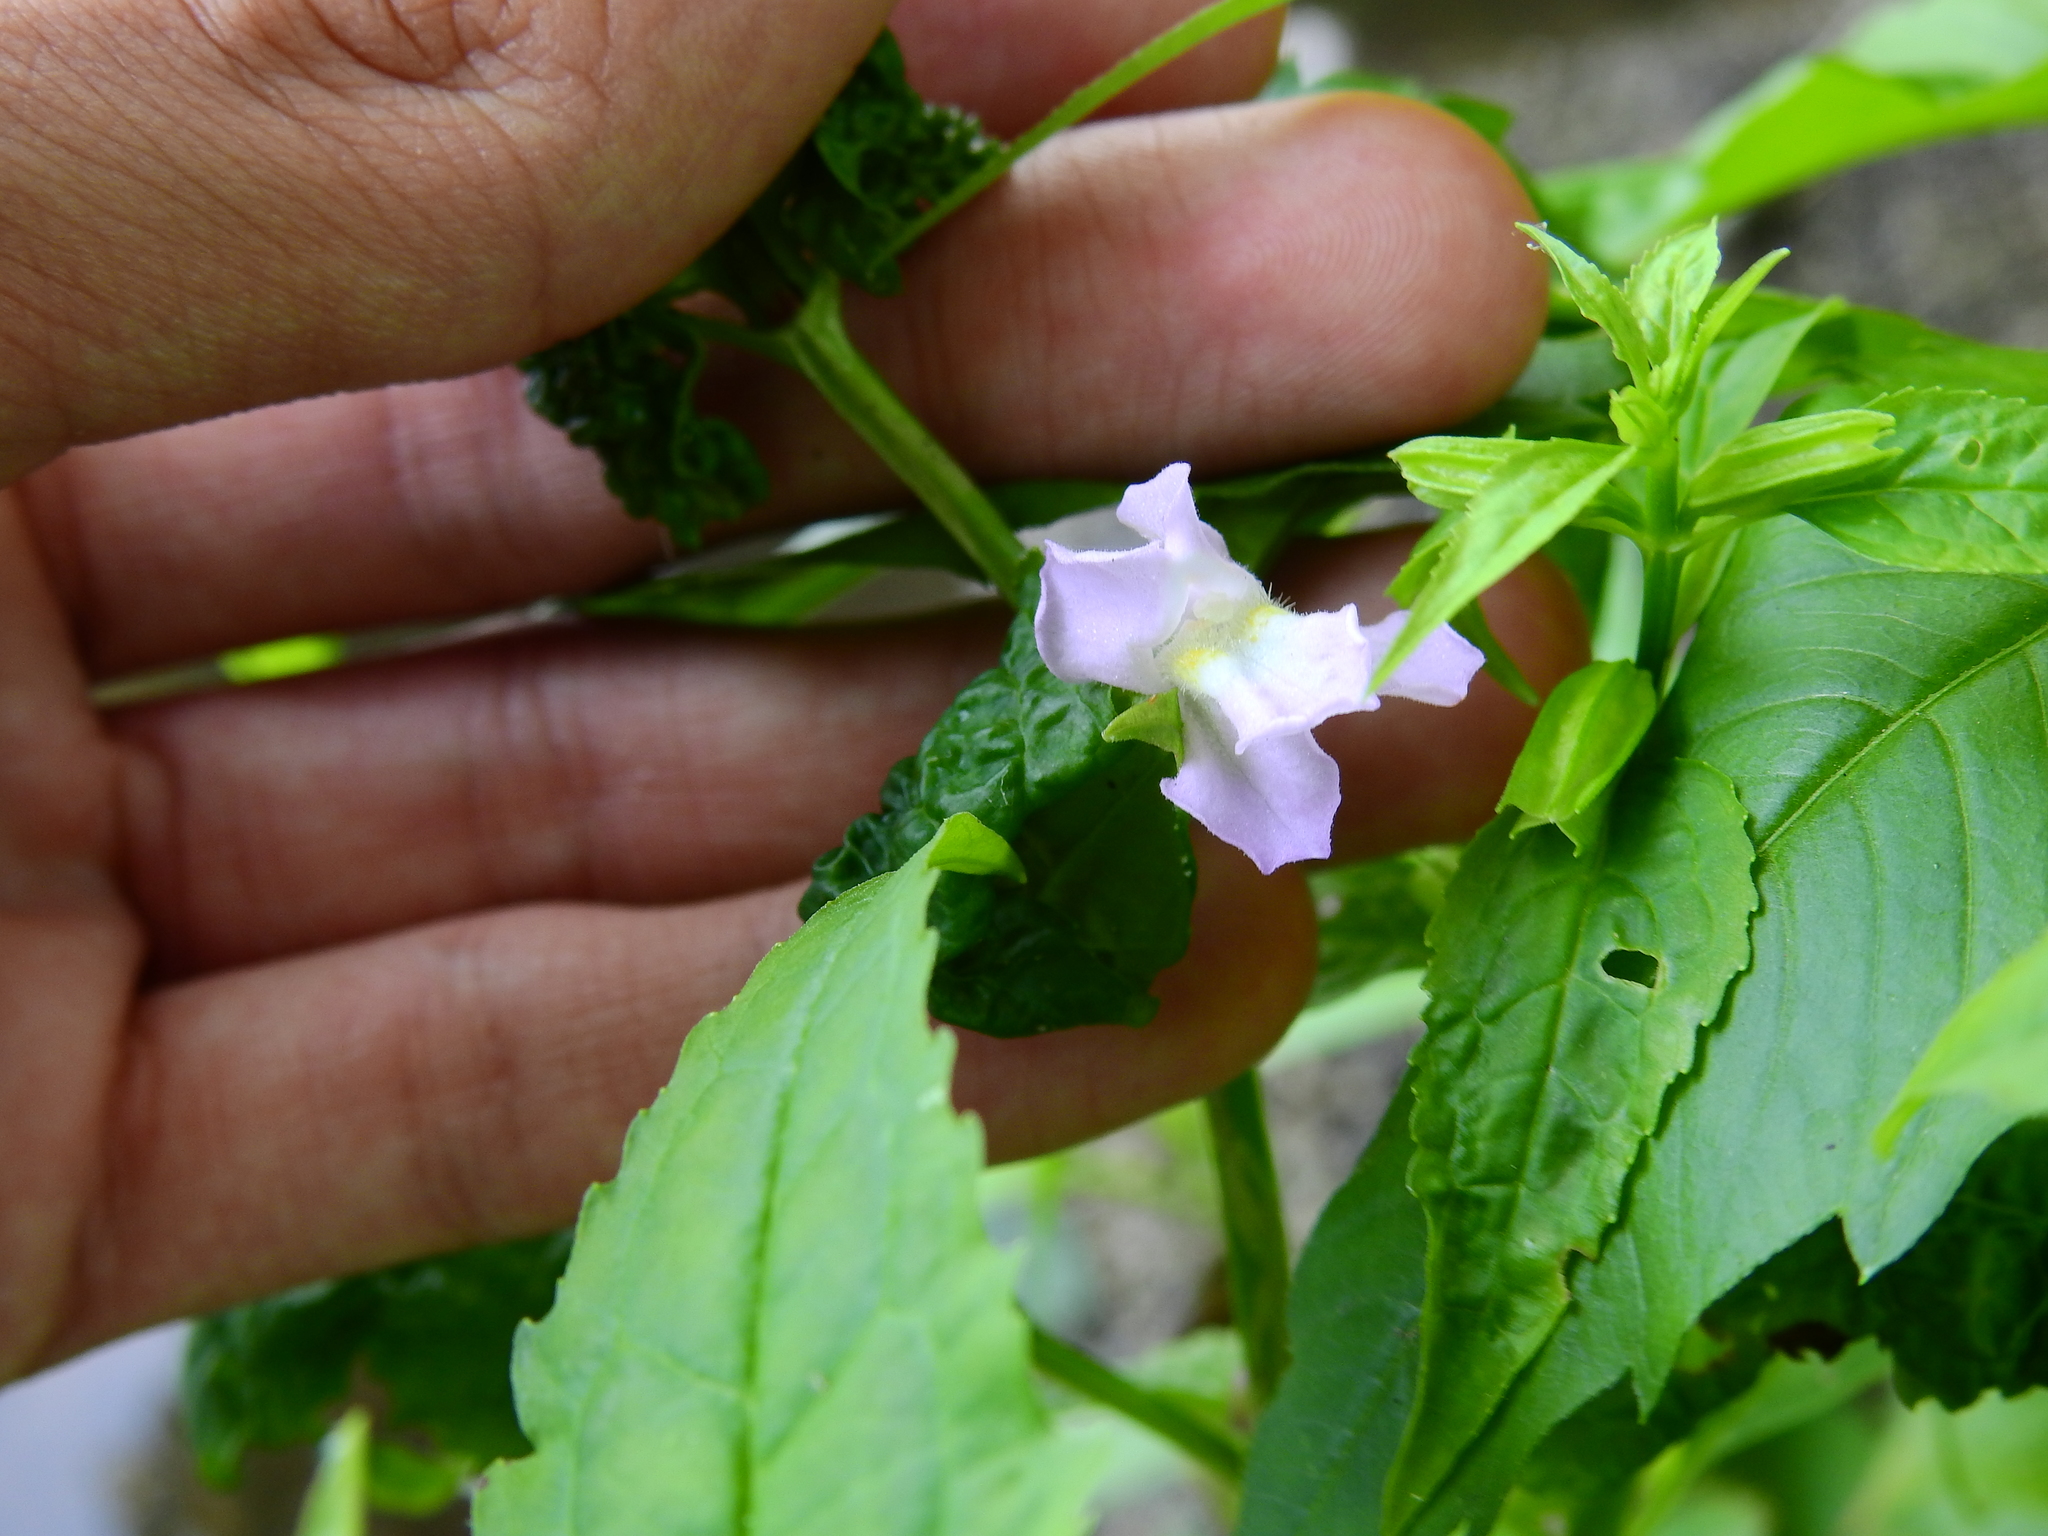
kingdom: Plantae
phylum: Tracheophyta
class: Magnoliopsida
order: Lamiales
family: Phrymaceae
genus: Mimulus
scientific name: Mimulus alatus
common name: Sharp-wing monkey-flower
